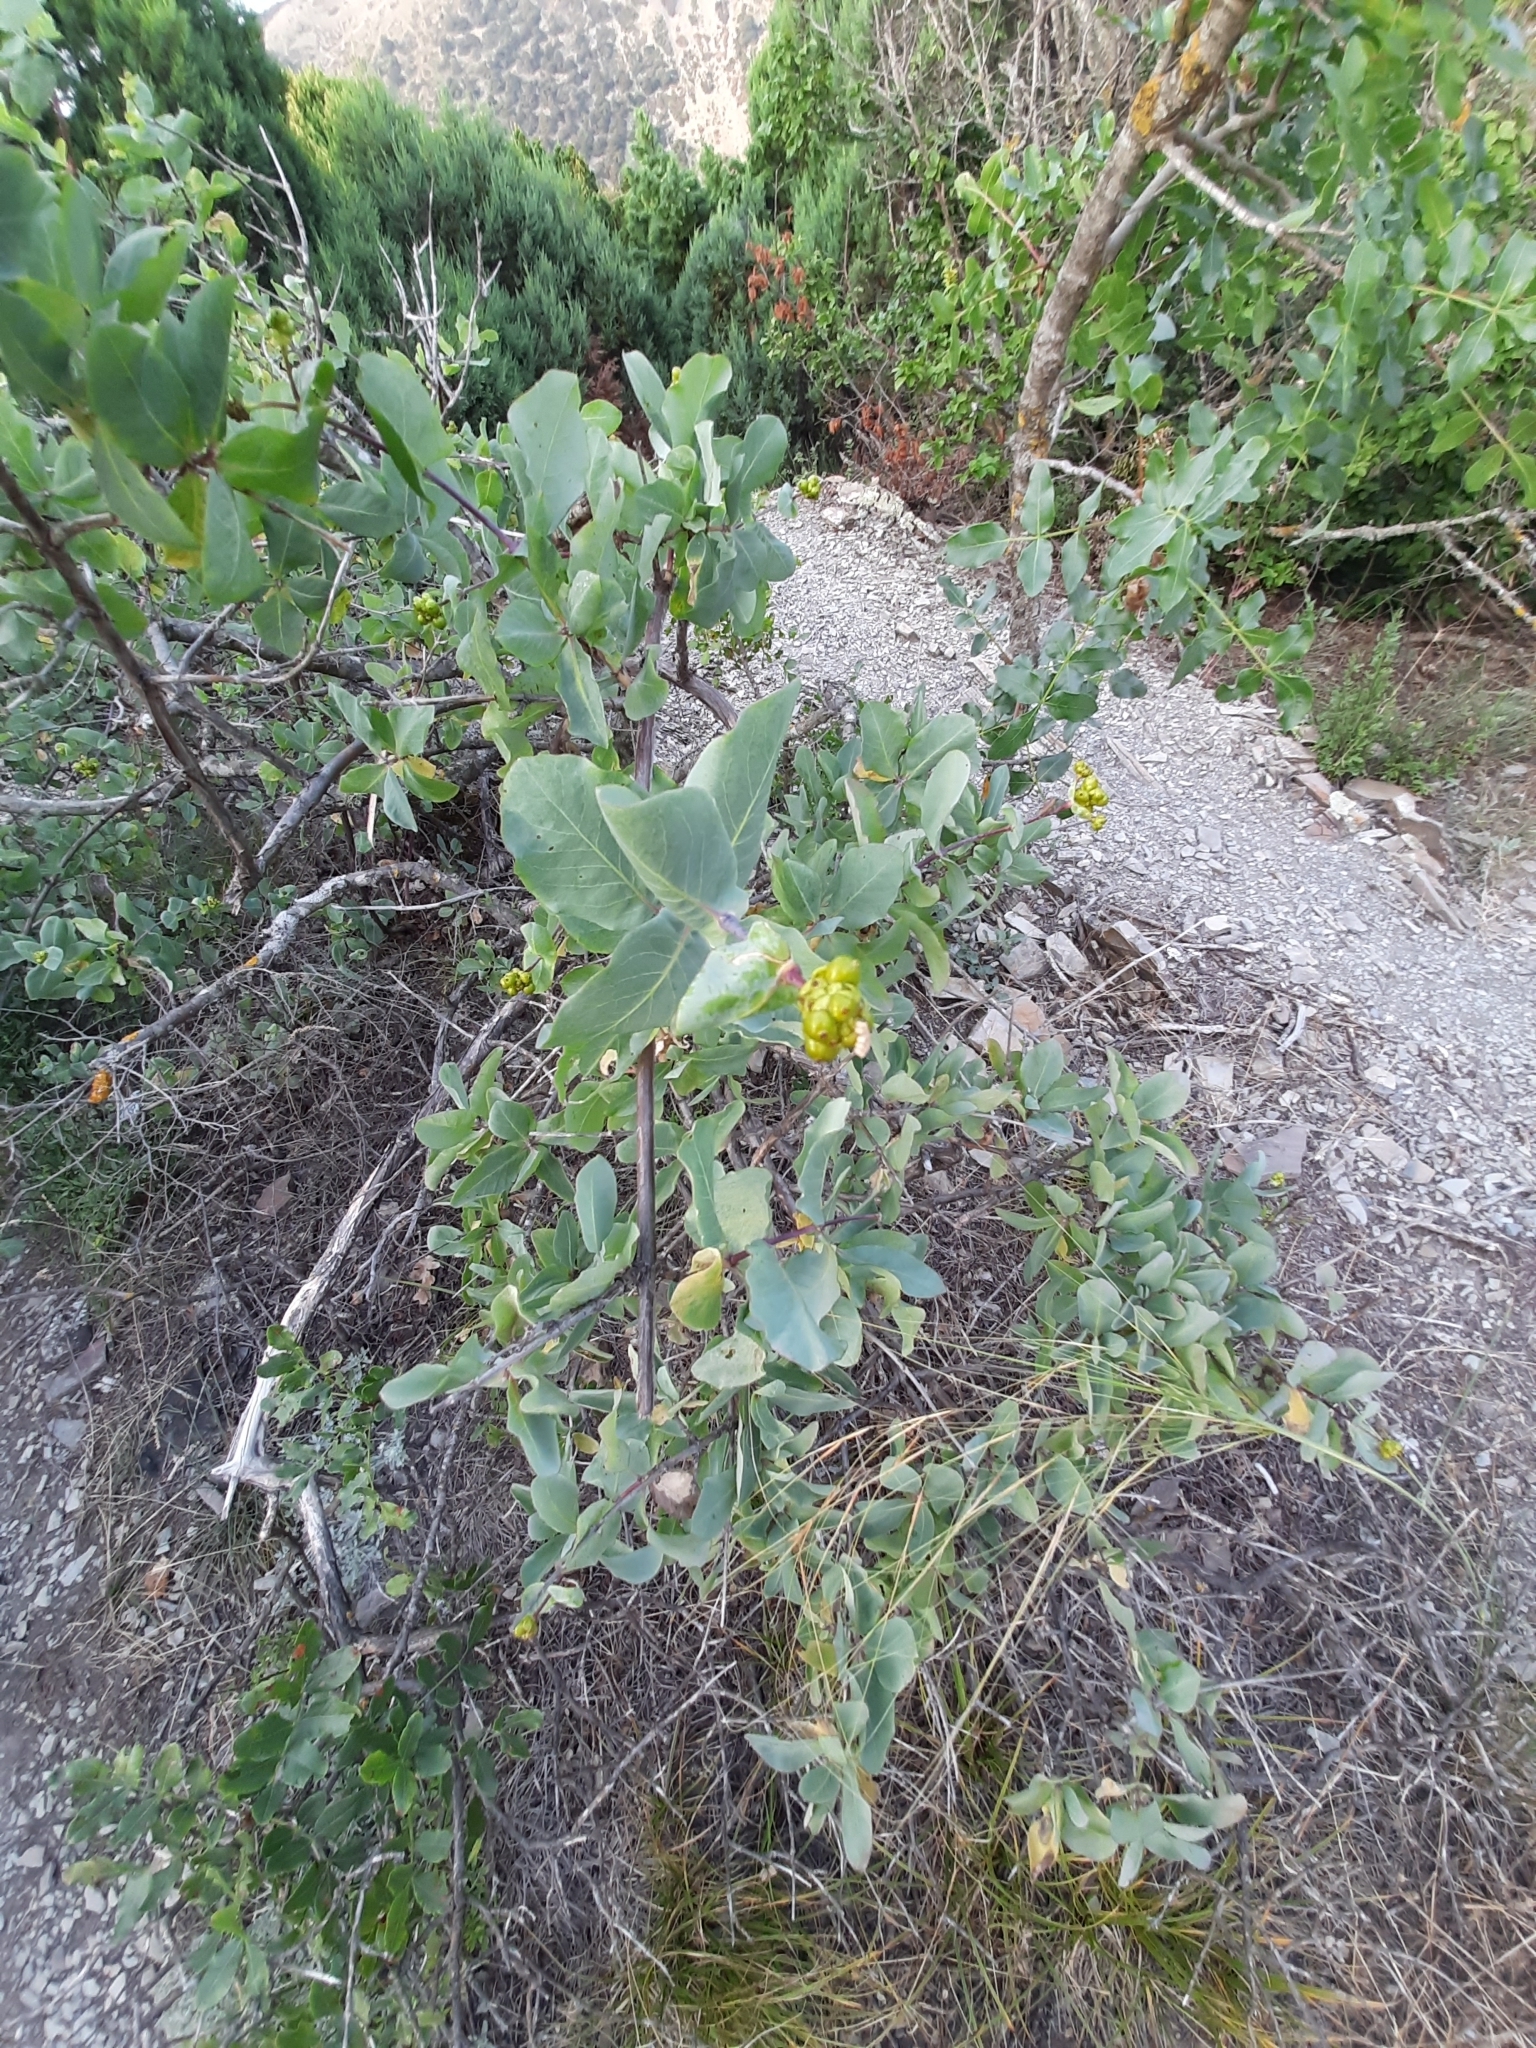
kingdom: Plantae
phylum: Tracheophyta
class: Magnoliopsida
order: Dipsacales
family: Caprifoliaceae
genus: Lonicera
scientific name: Lonicera etrusca
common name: Etruscan honeysuckle
